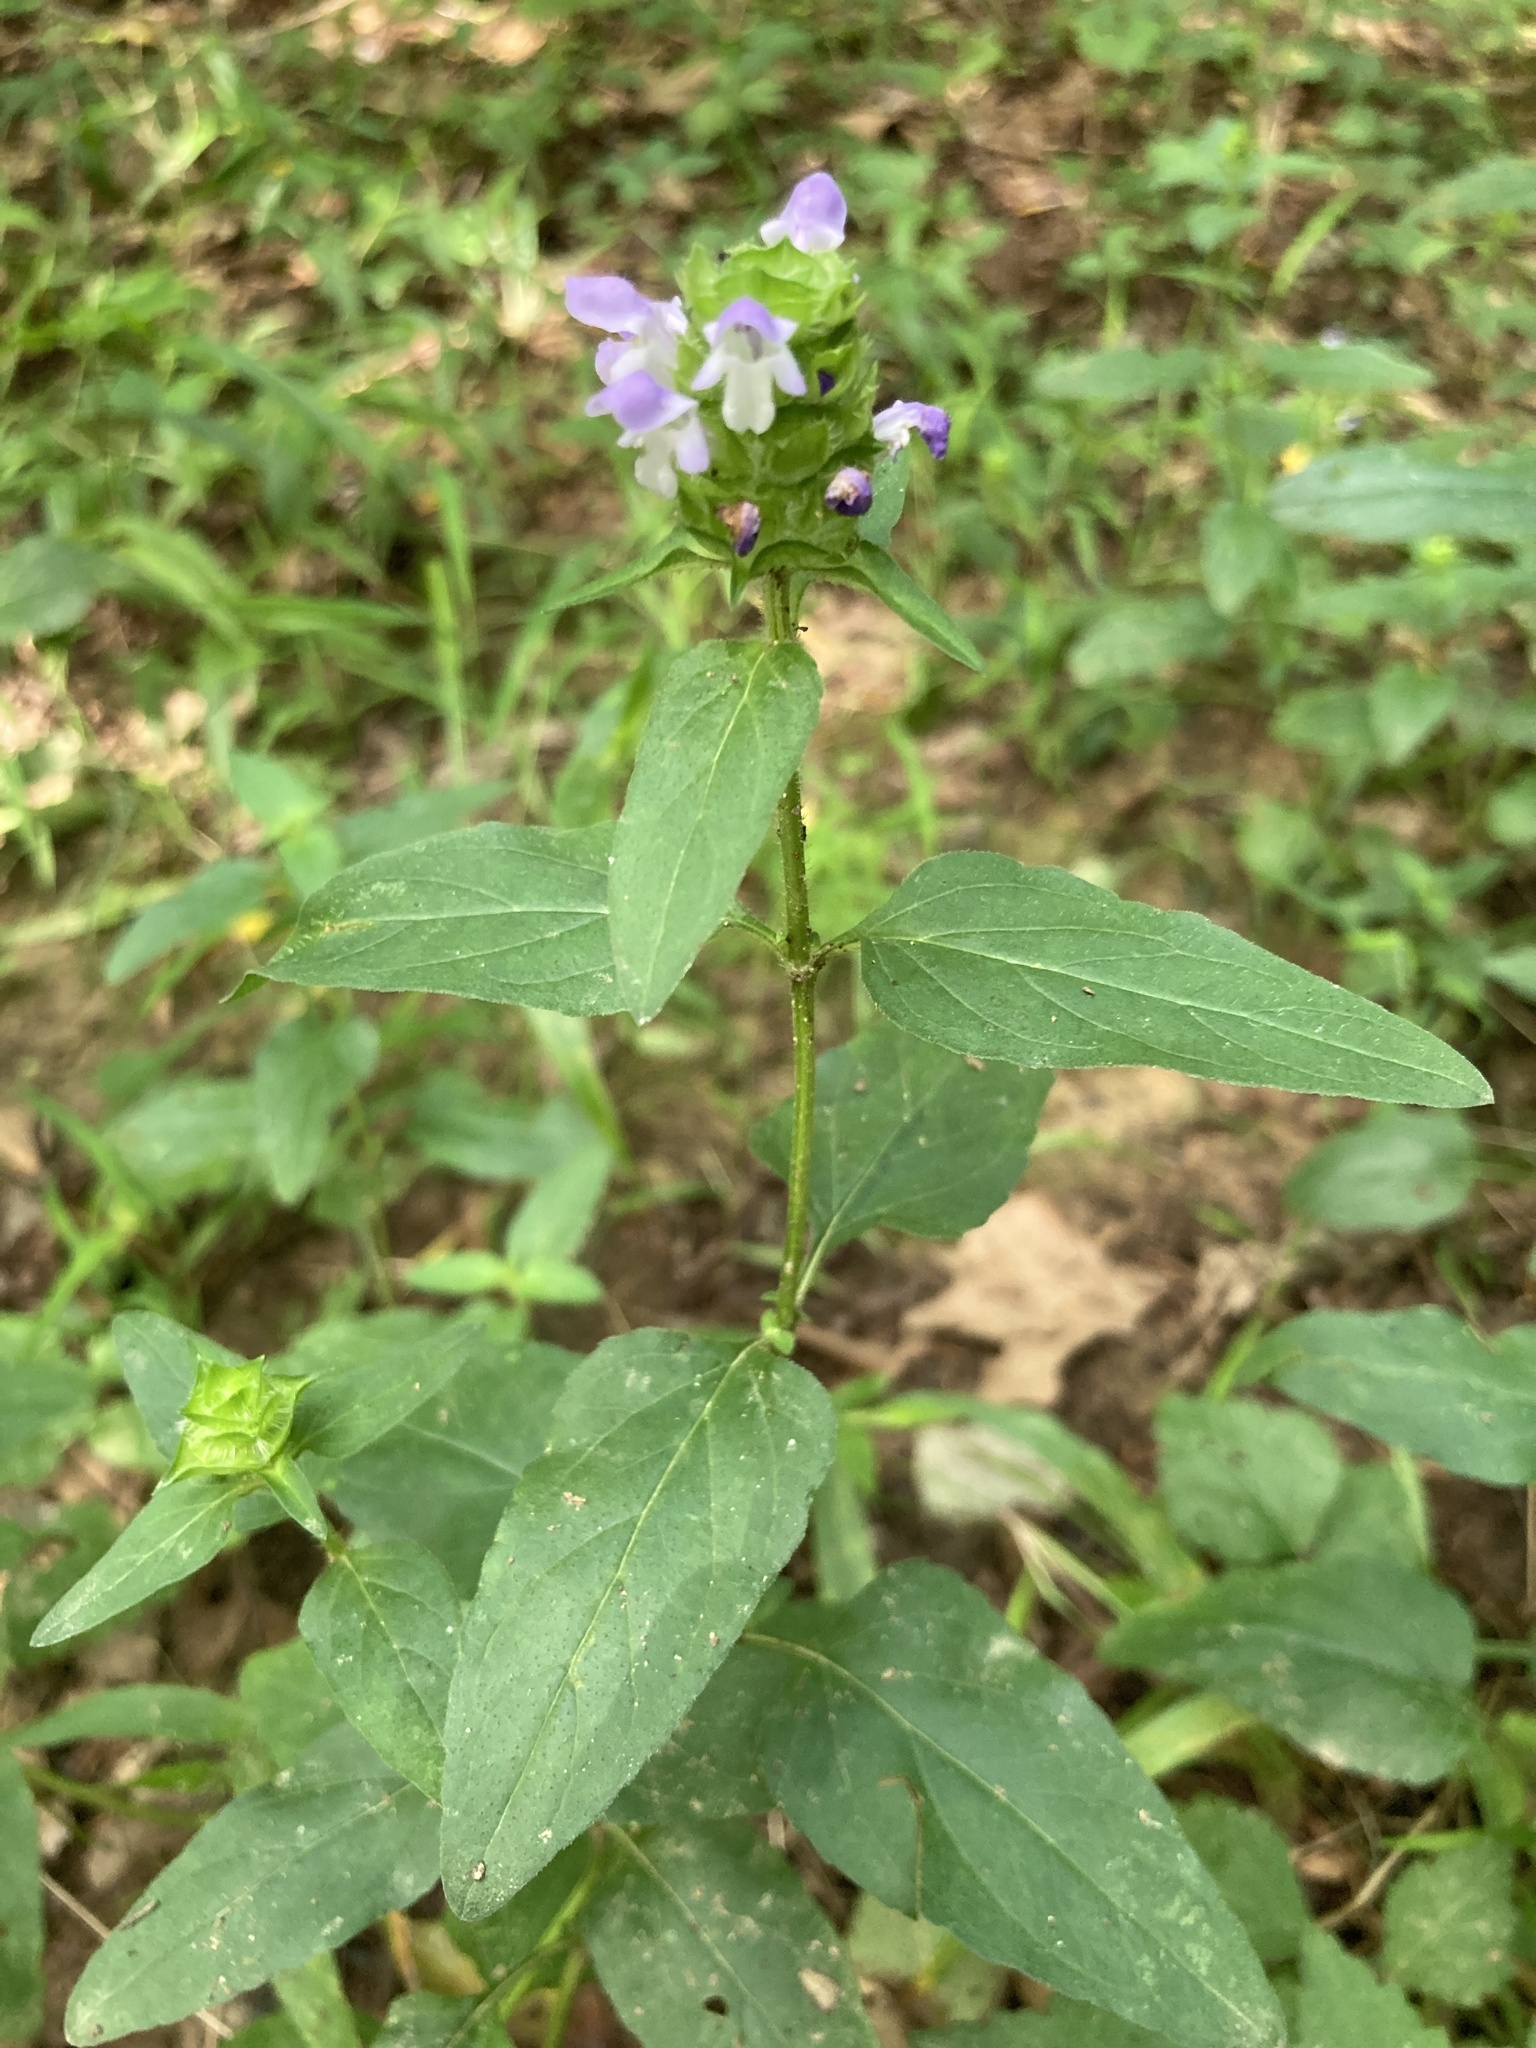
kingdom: Plantae
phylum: Tracheophyta
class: Magnoliopsida
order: Lamiales
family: Lamiaceae
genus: Prunella
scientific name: Prunella vulgaris
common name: Heal-all
